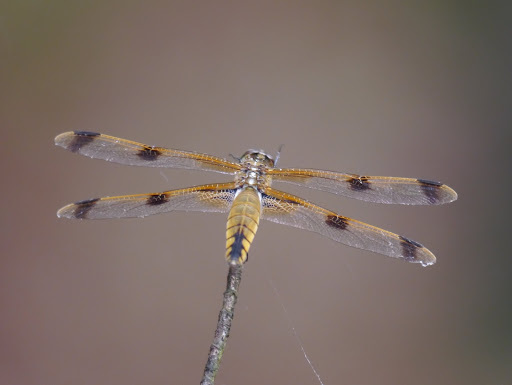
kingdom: Animalia
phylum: Arthropoda
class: Insecta
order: Odonata
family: Libellulidae
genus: Libellula
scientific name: Libellula semifasciata
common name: Painted skimmer
